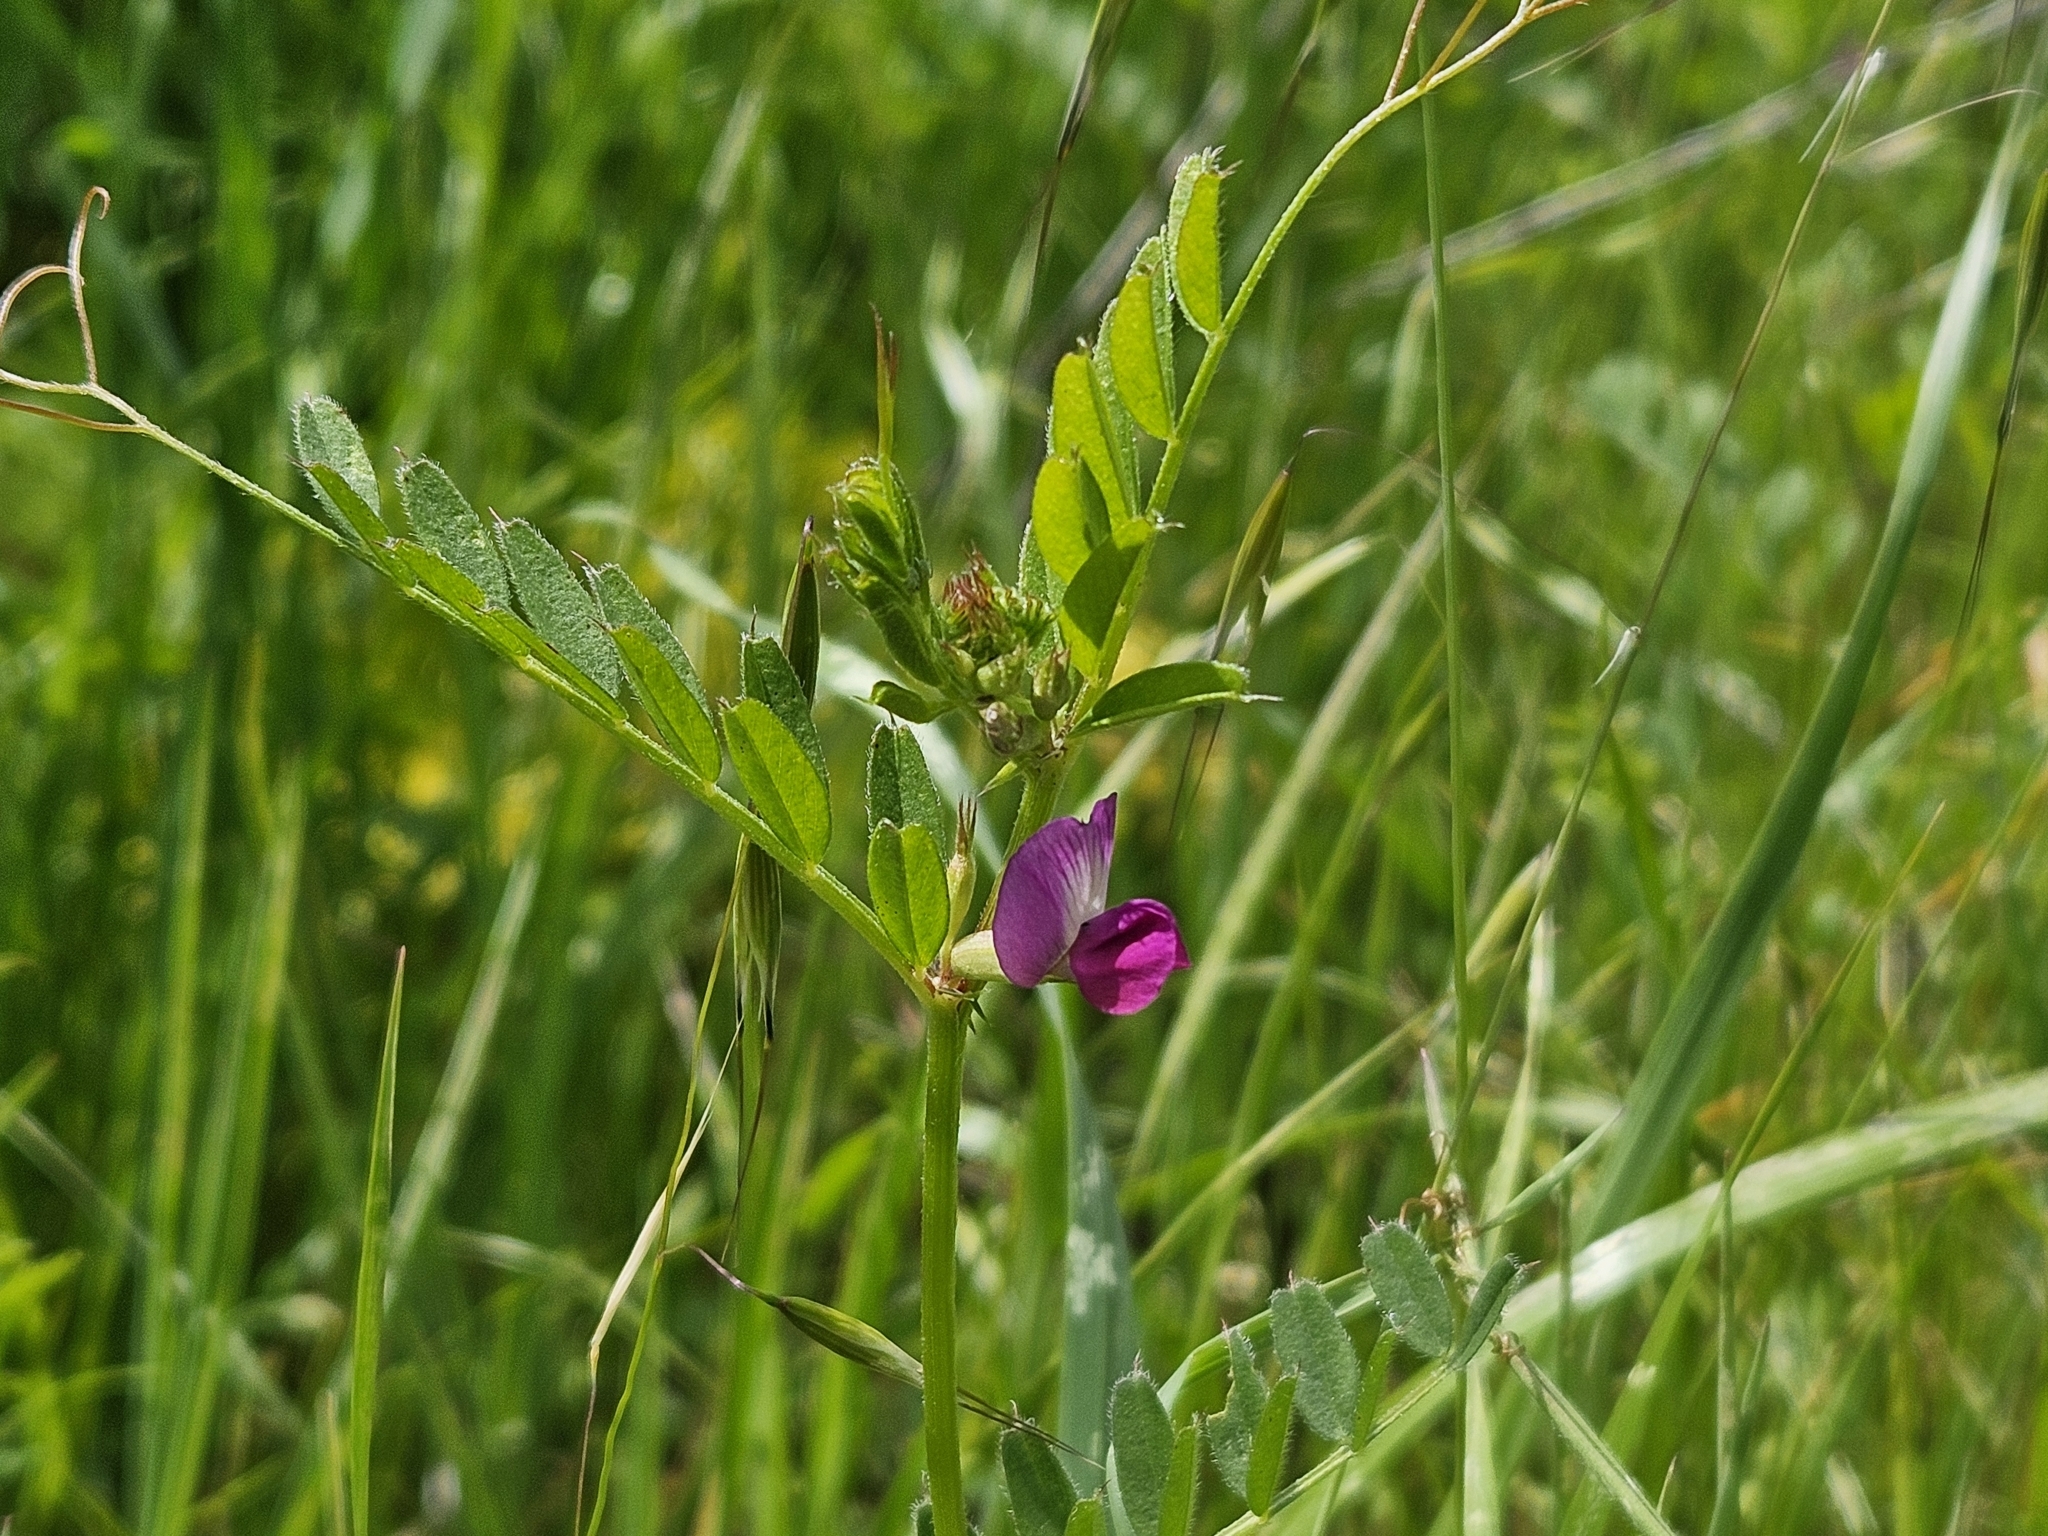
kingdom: Plantae
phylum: Tracheophyta
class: Magnoliopsida
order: Fabales
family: Fabaceae
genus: Vicia
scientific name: Vicia sativa
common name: Garden vetch
